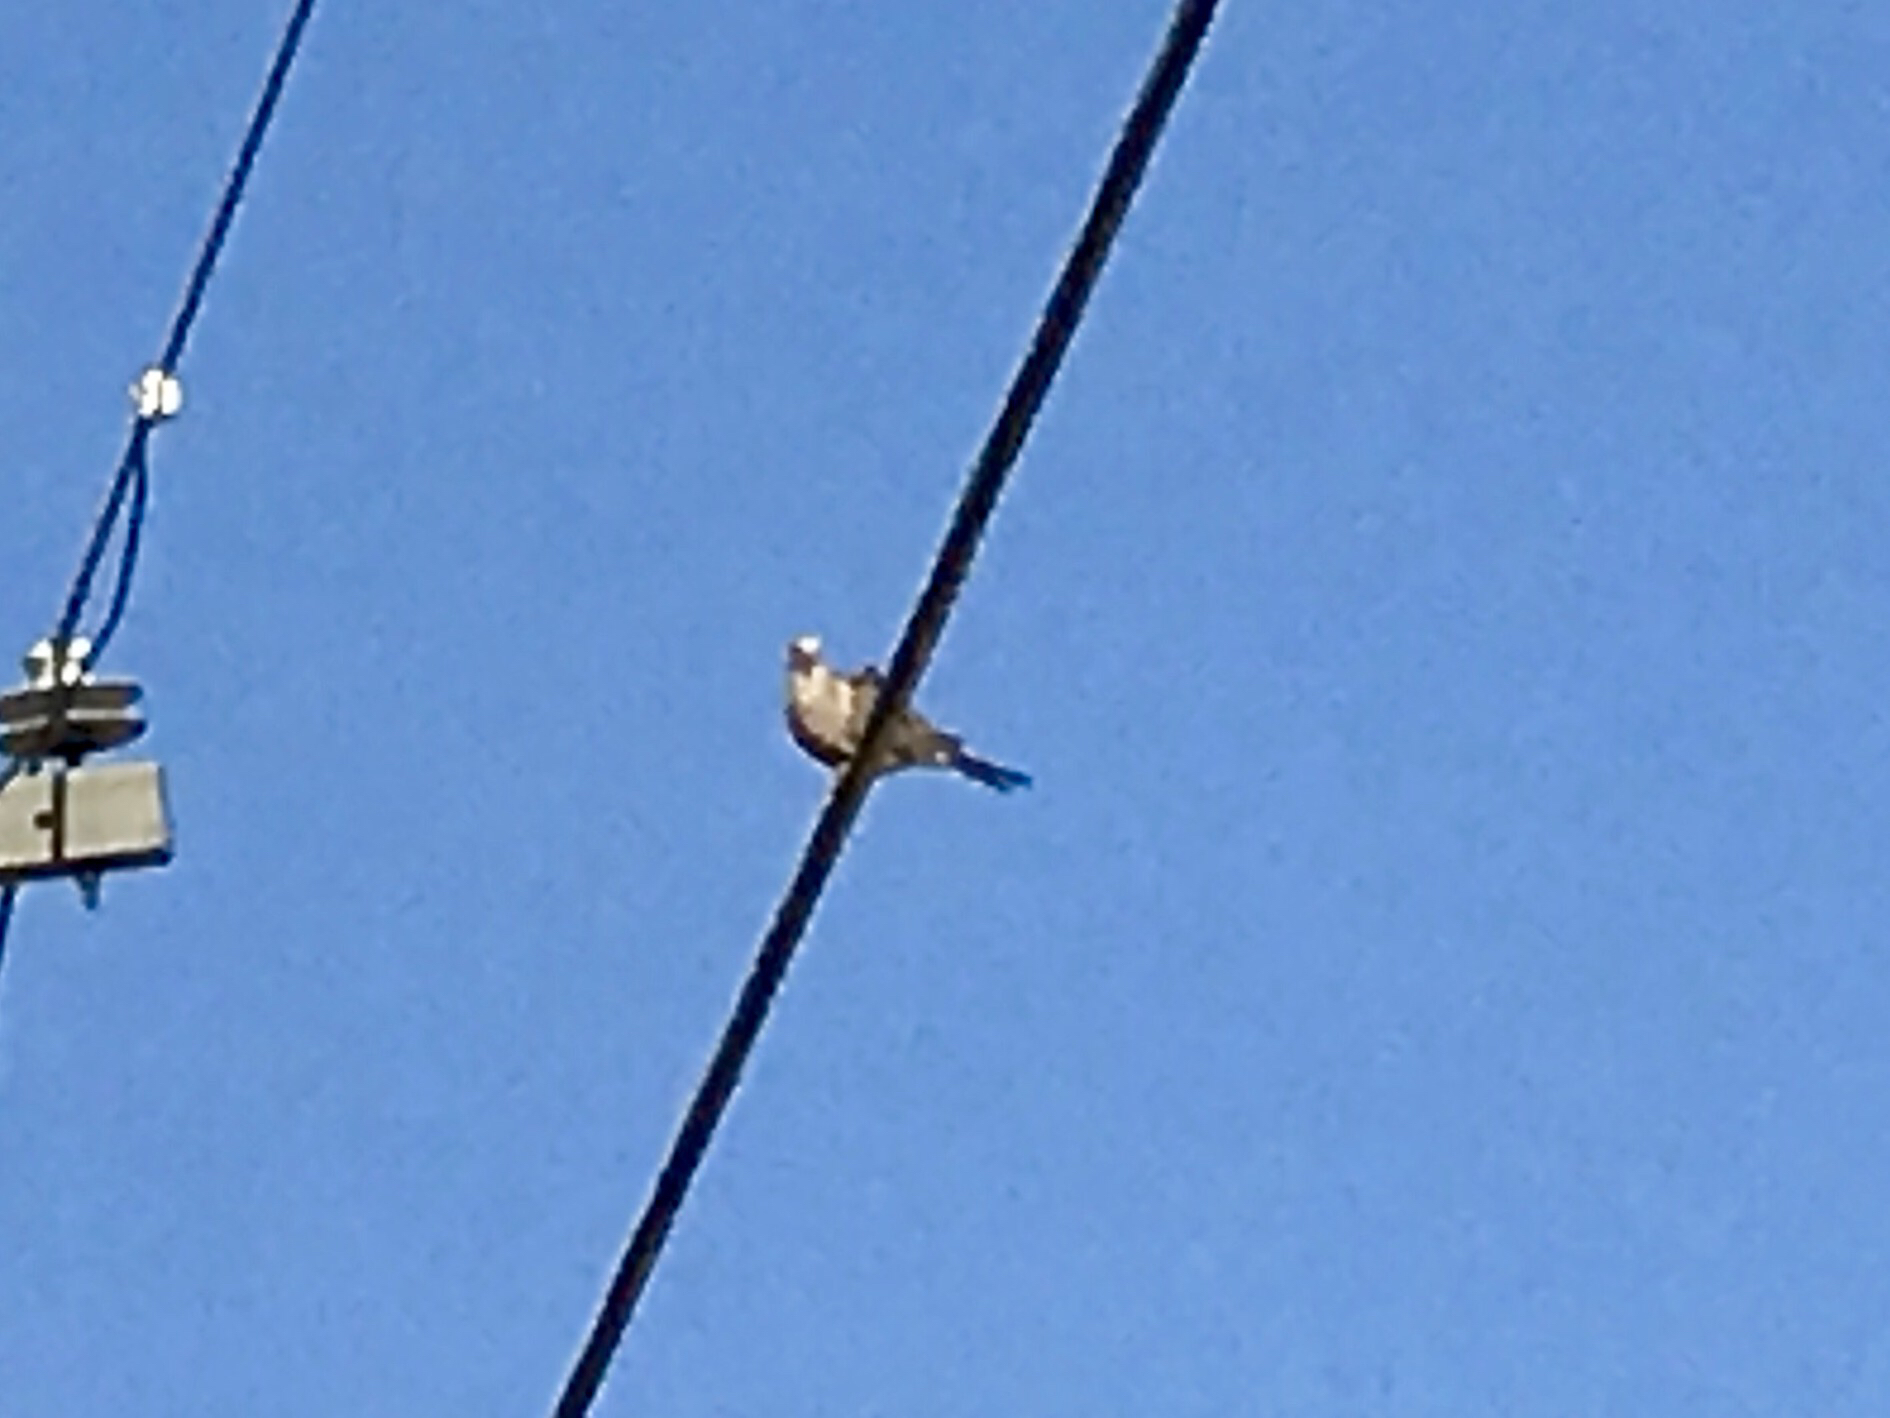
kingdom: Animalia
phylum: Chordata
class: Aves
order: Columbiformes
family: Columbidae
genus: Zenaida
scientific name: Zenaida macroura
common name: Mourning dove
